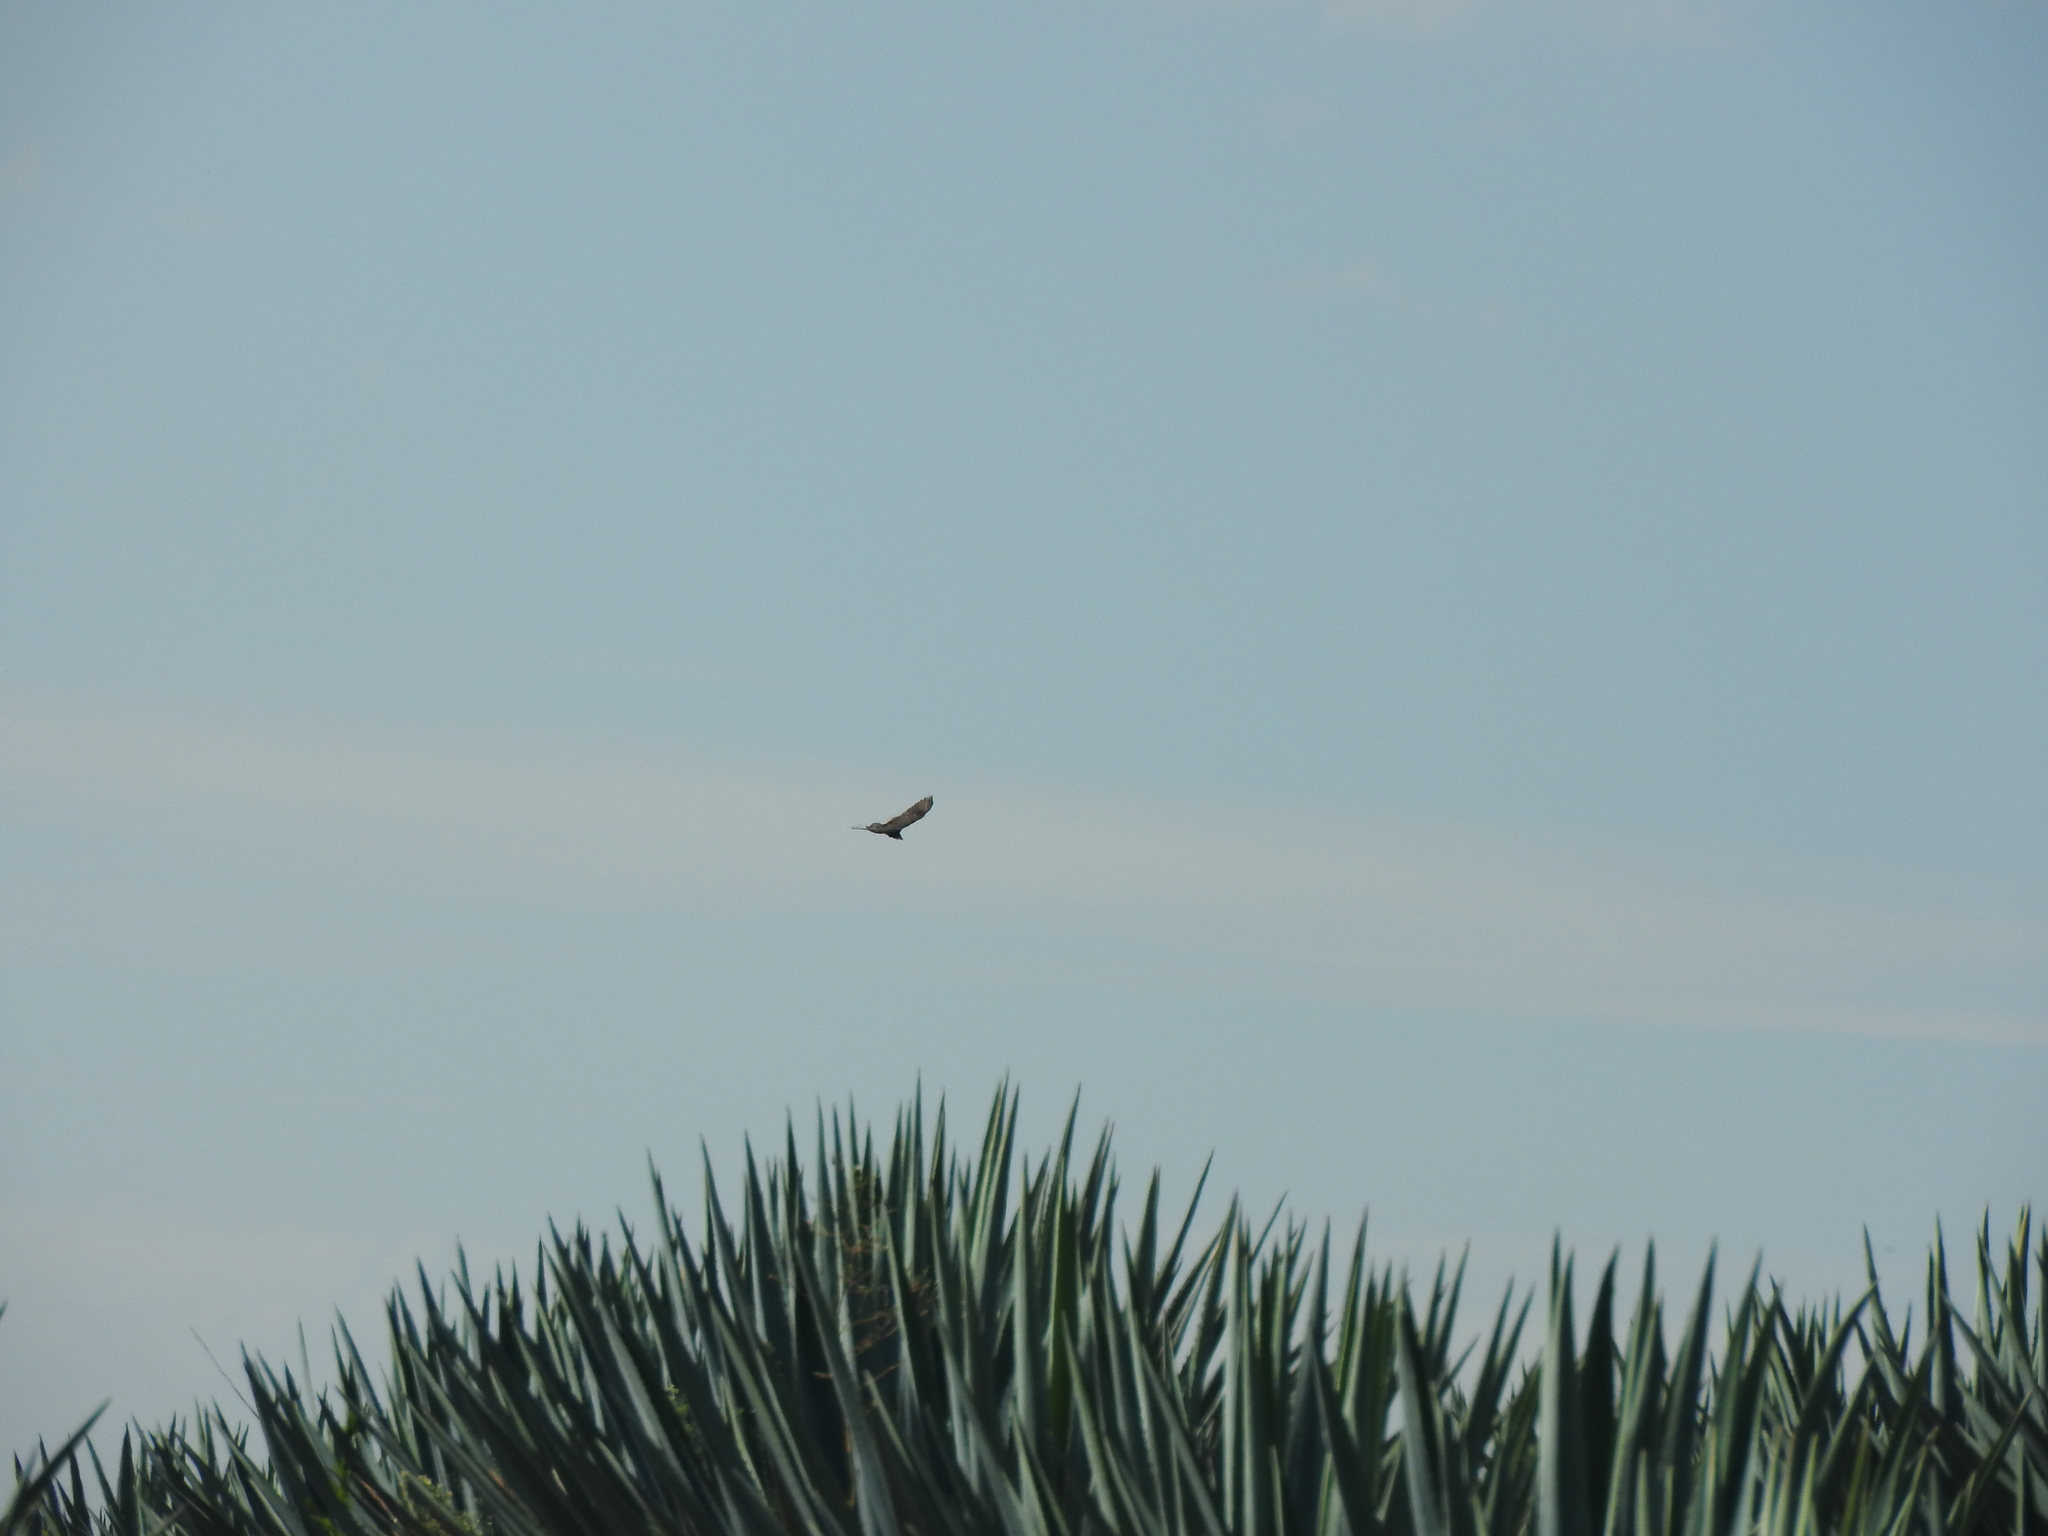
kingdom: Animalia
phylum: Chordata
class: Aves
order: Accipitriformes
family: Cathartidae
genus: Cathartes
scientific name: Cathartes aura
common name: Turkey vulture
